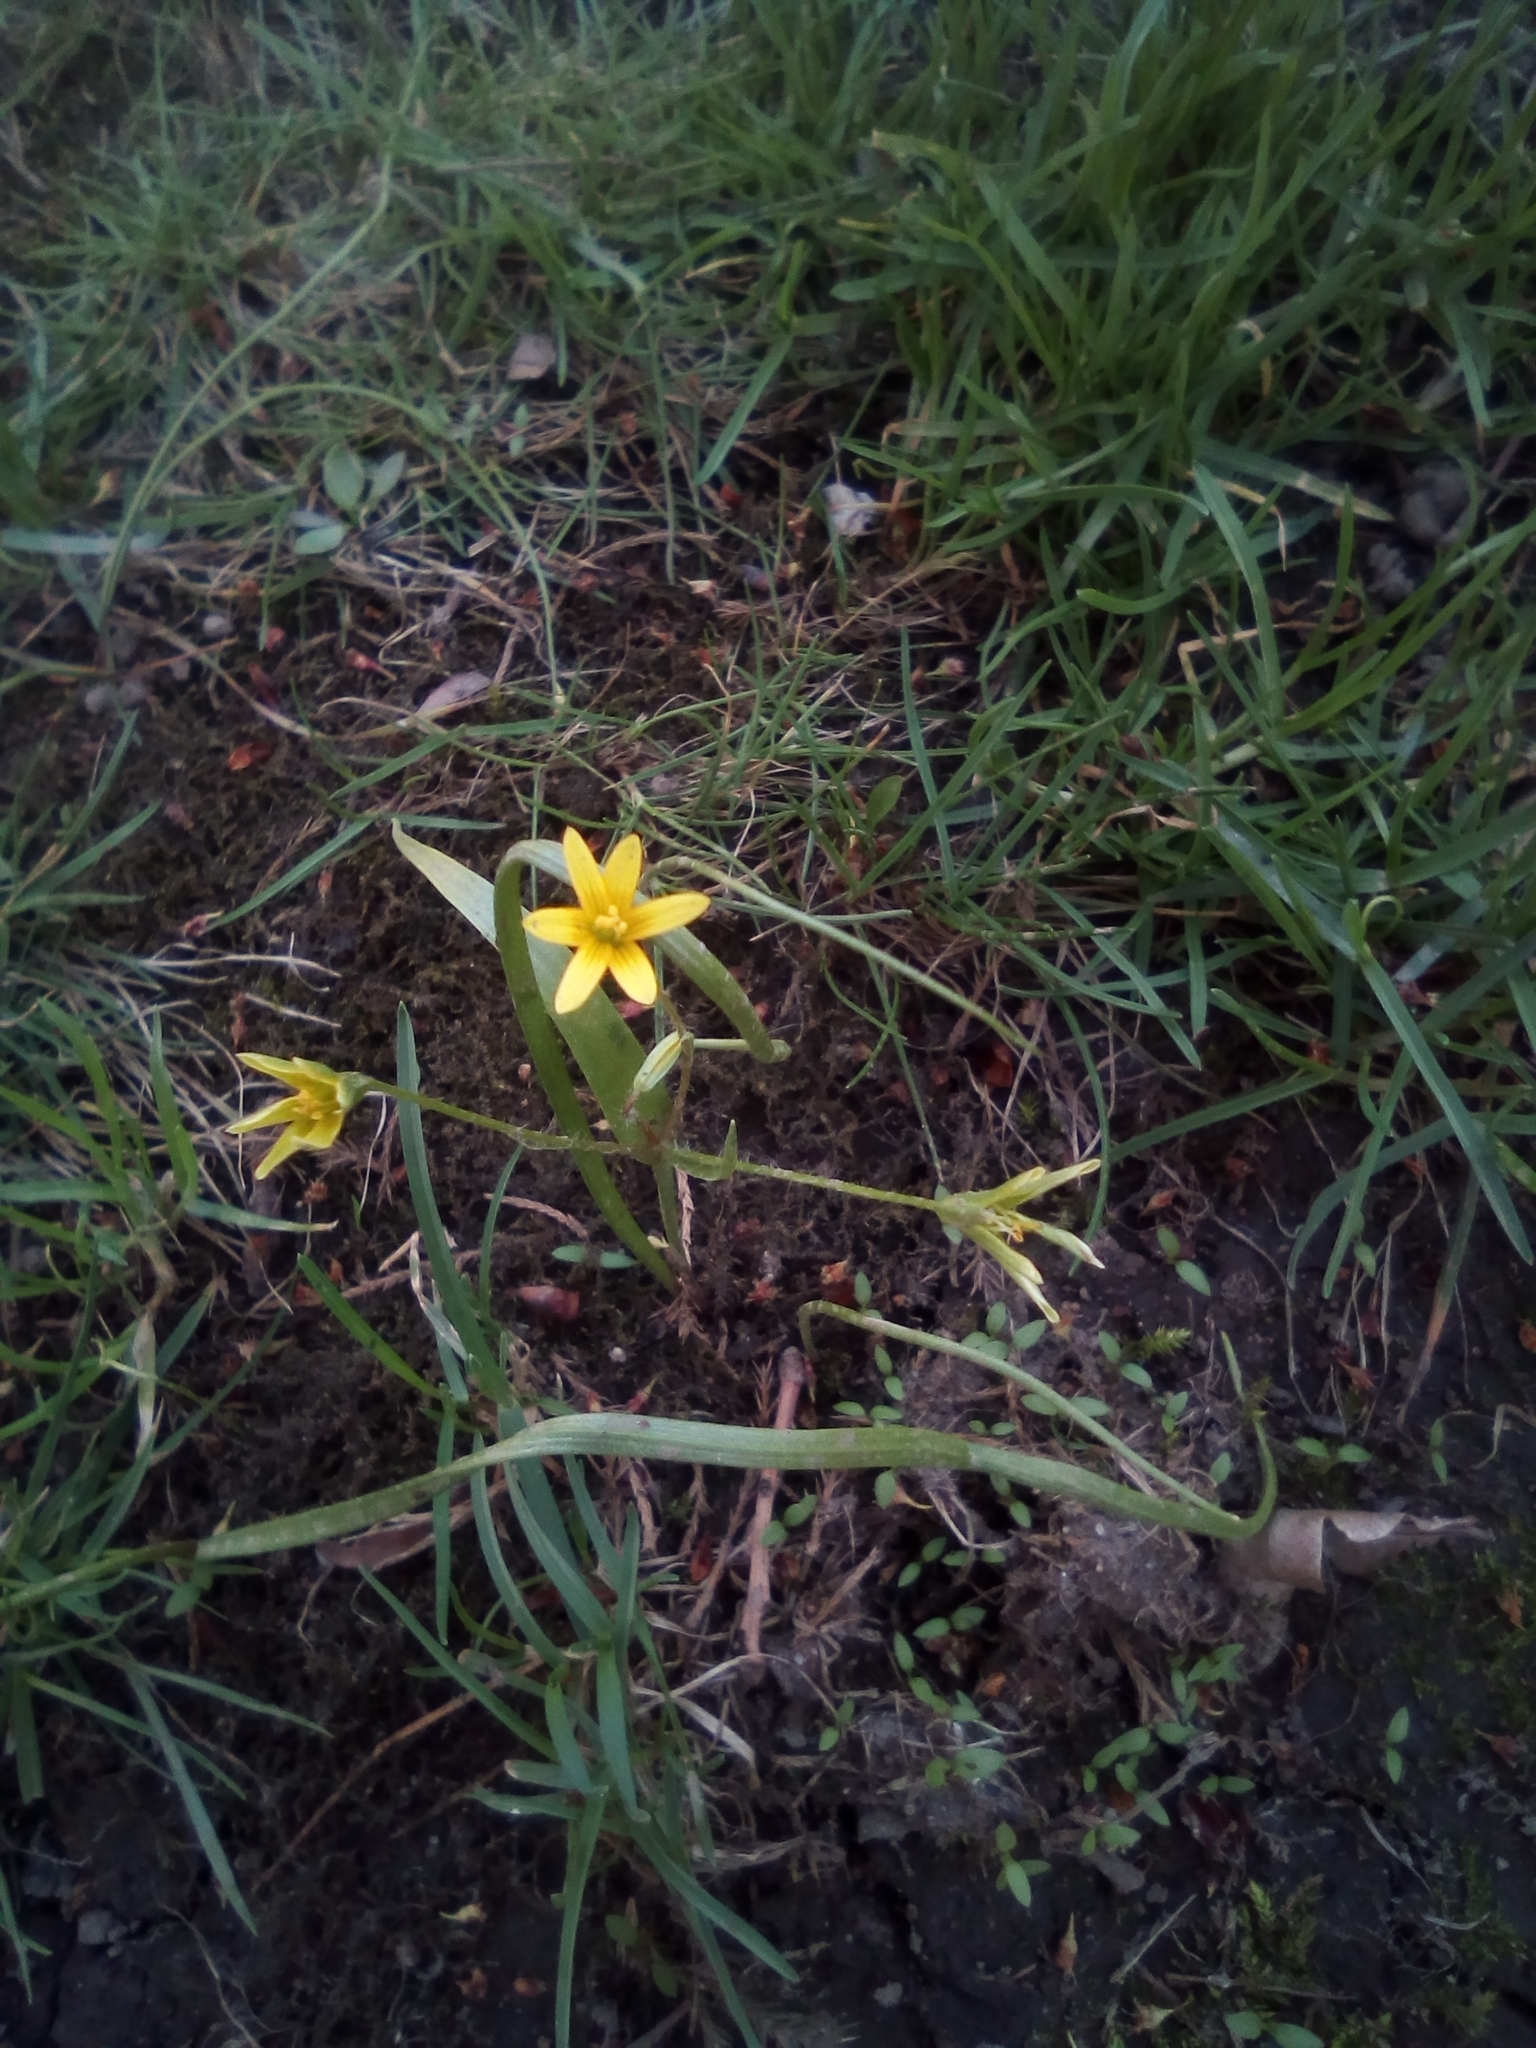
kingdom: Plantae
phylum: Tracheophyta
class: Liliopsida
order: Liliales
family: Liliaceae
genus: Gagea
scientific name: Gagea filiformis
